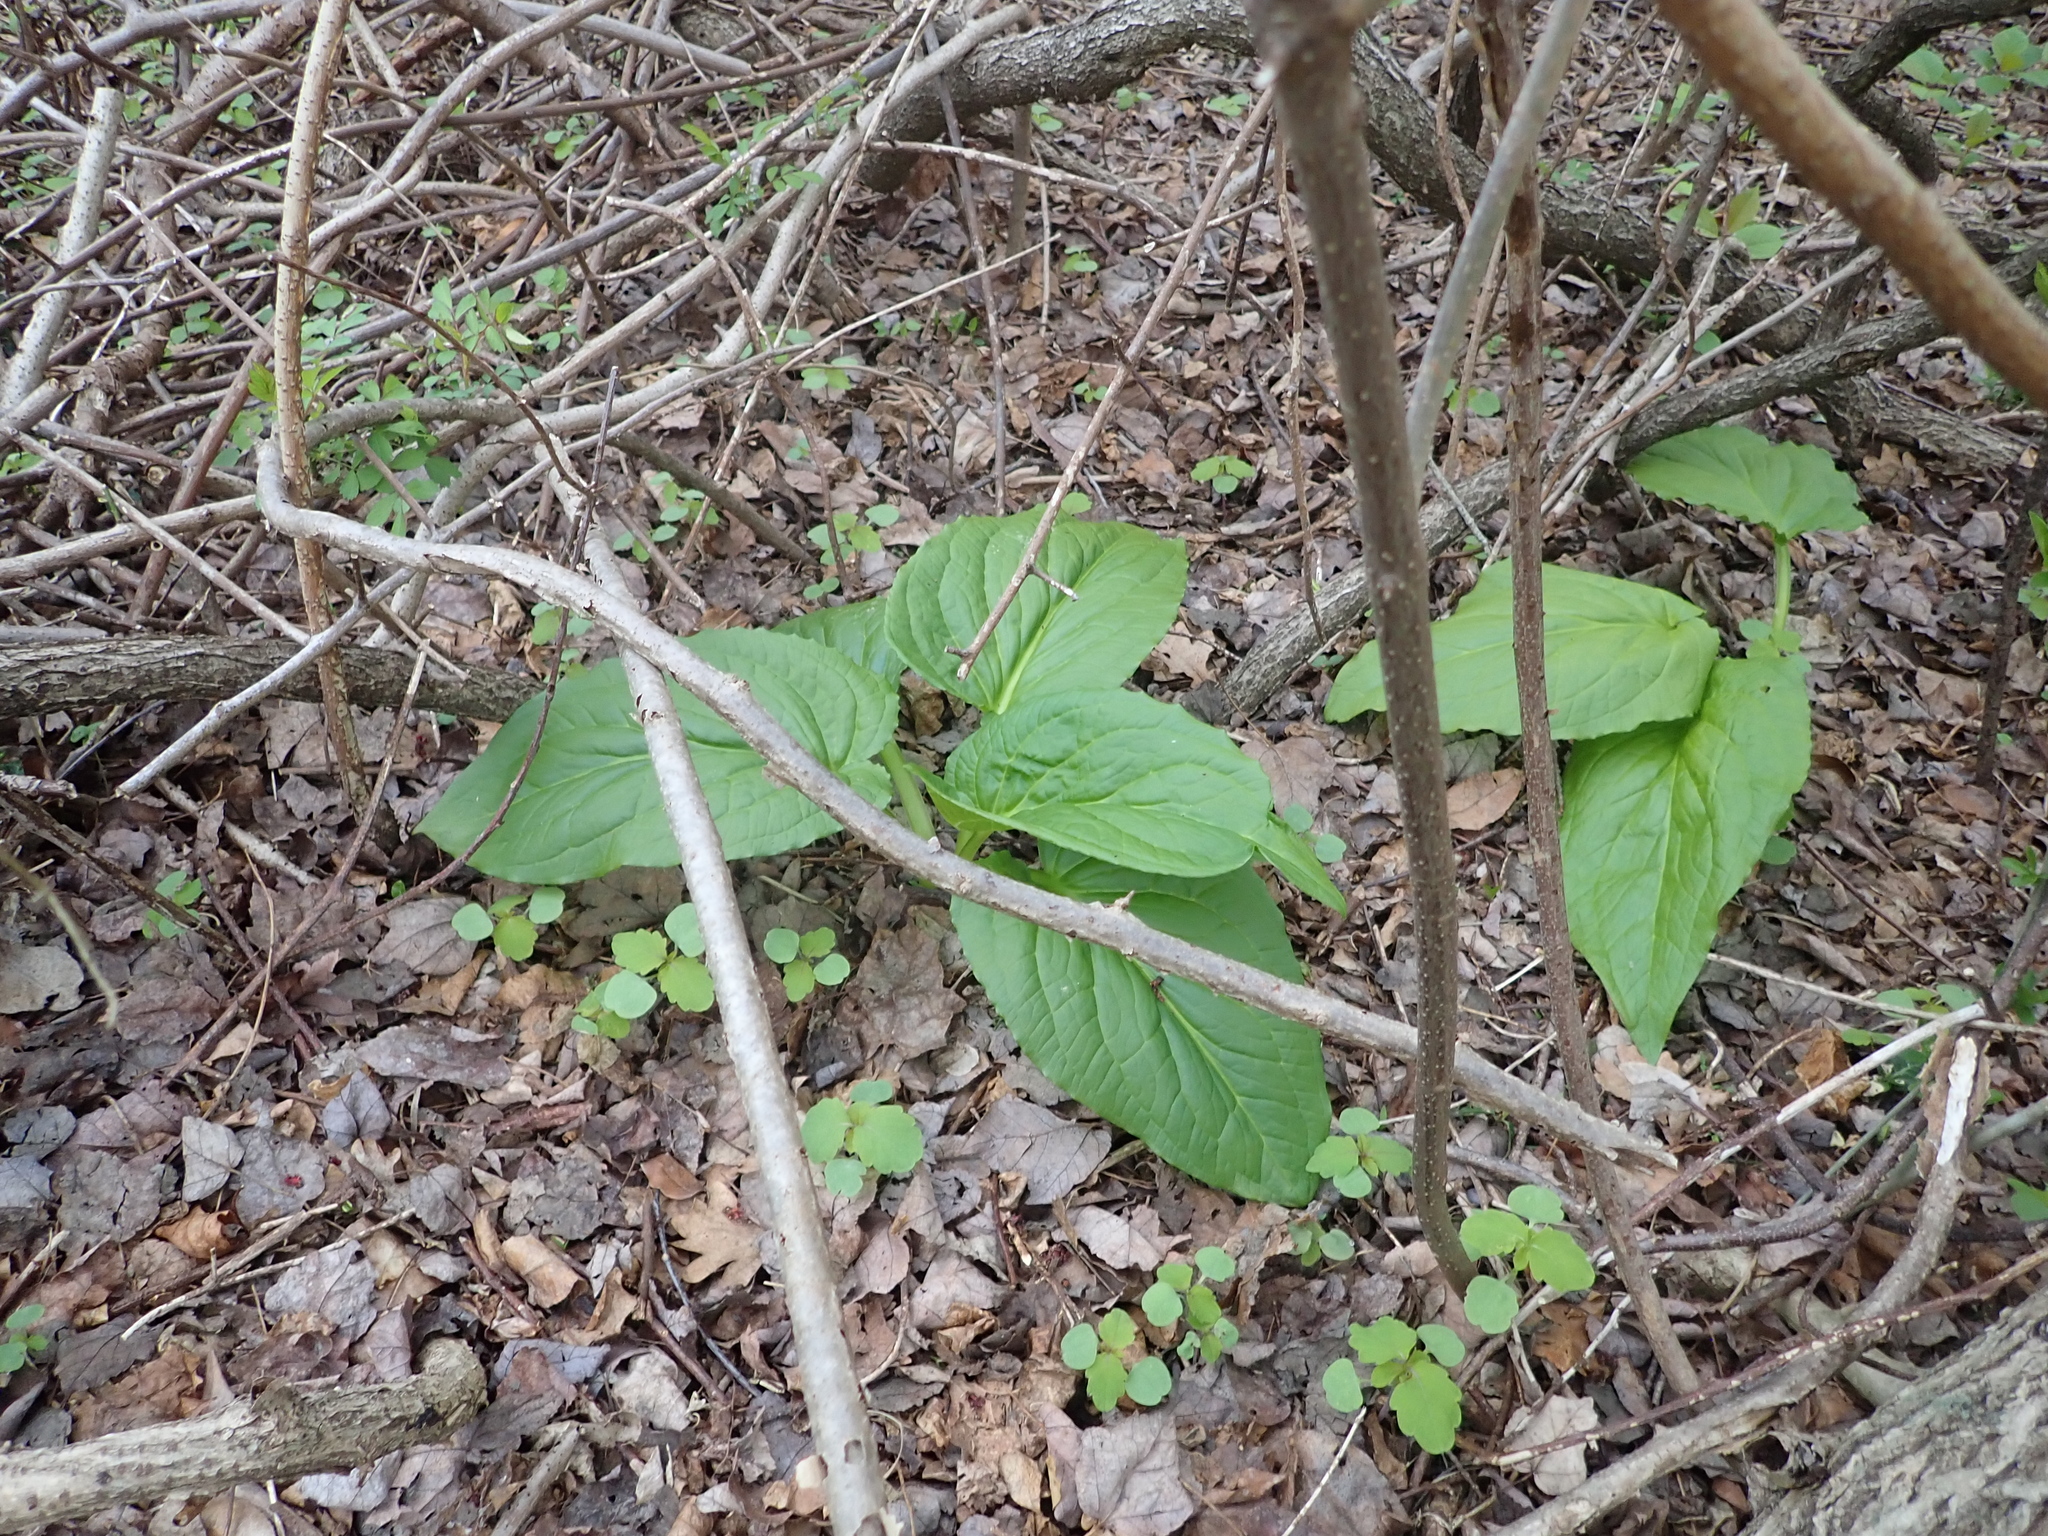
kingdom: Plantae
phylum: Tracheophyta
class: Liliopsida
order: Alismatales
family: Araceae
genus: Symplocarpus
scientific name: Symplocarpus foetidus
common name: Eastern skunk cabbage
